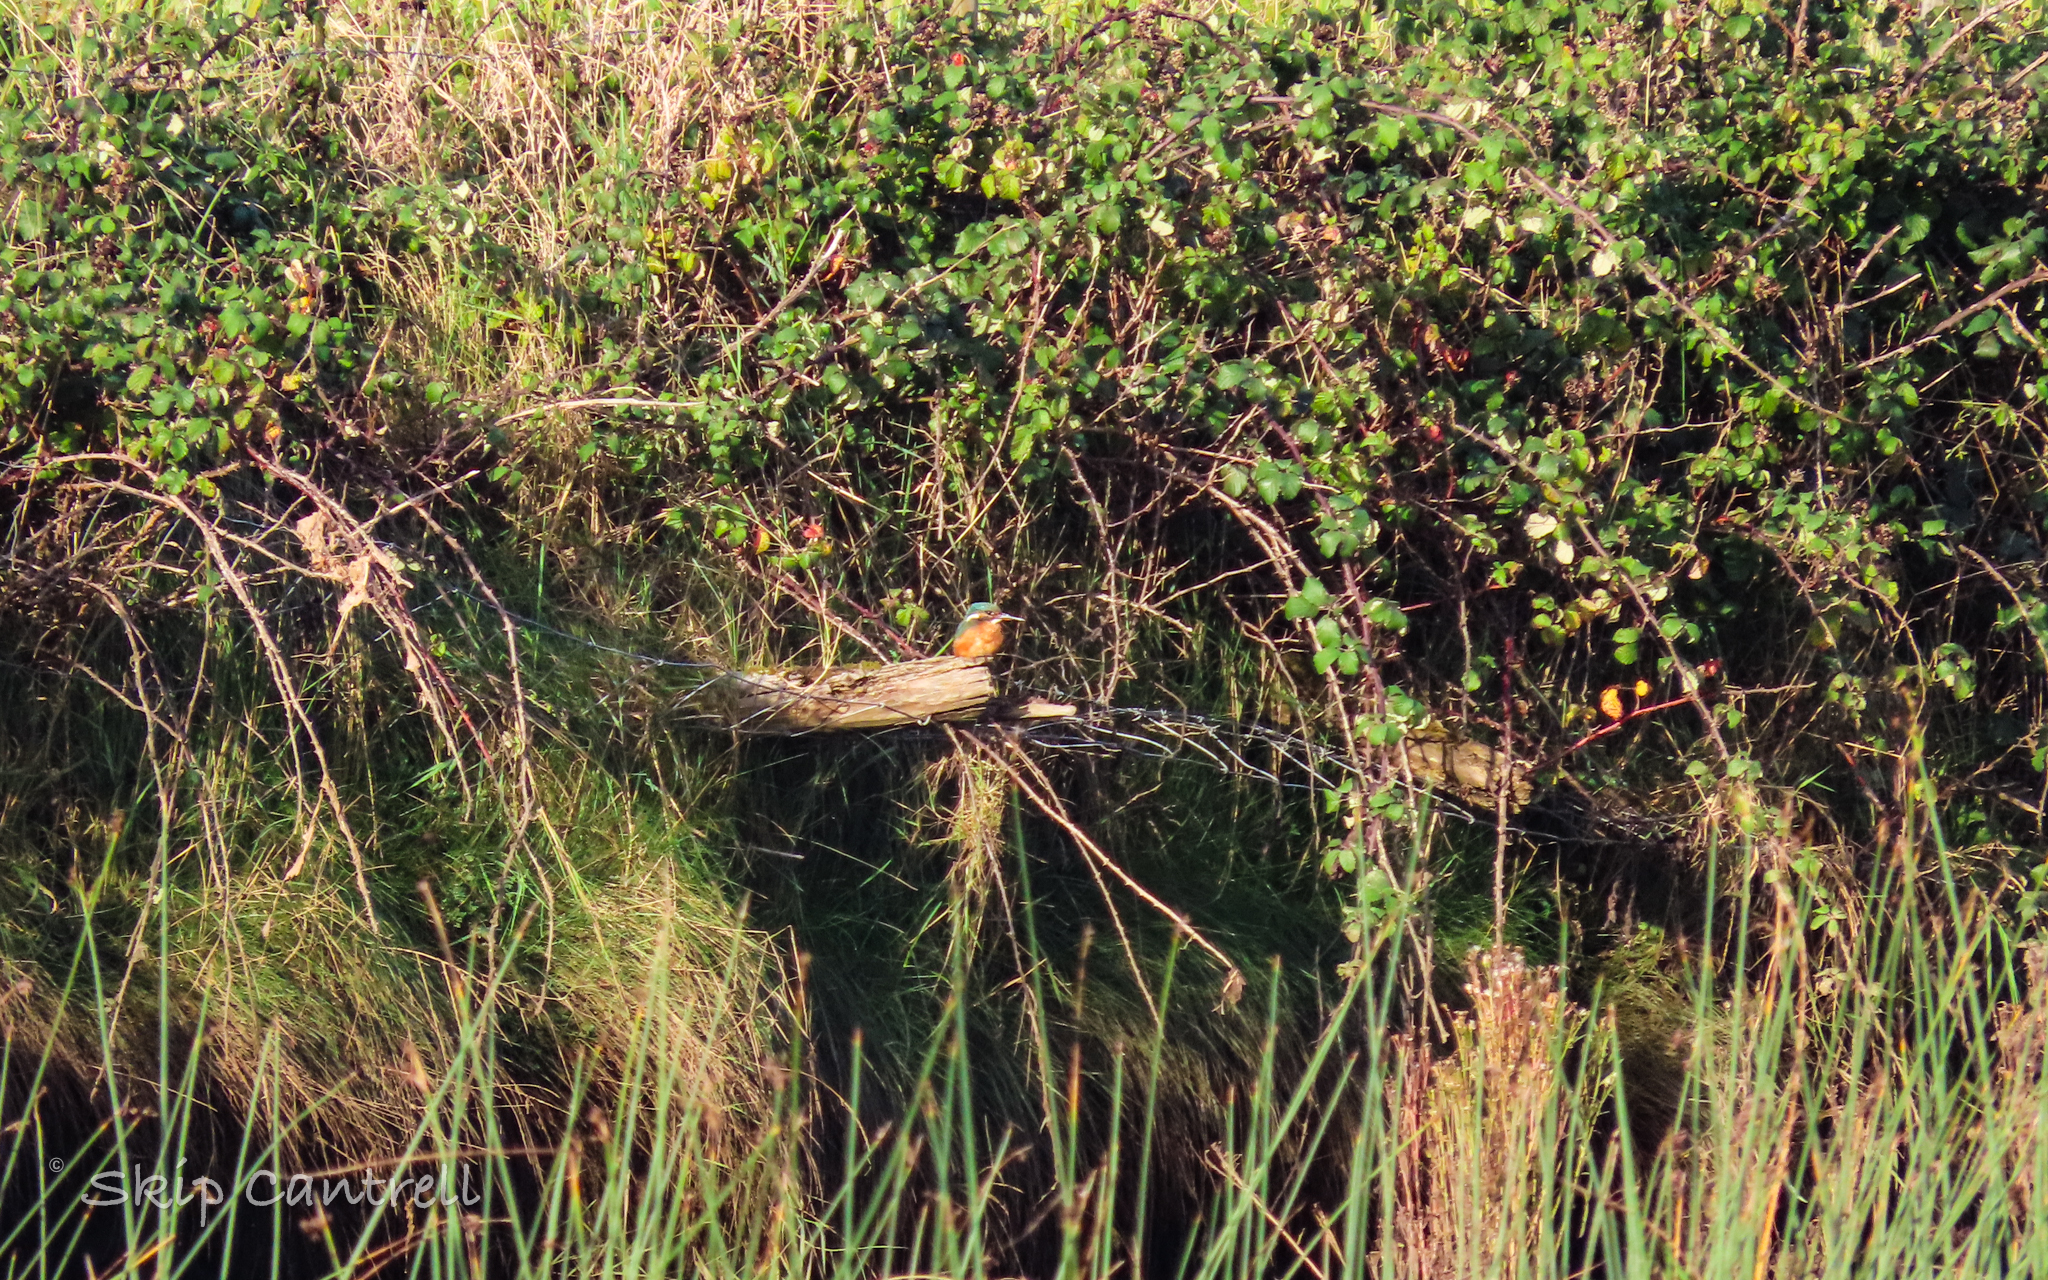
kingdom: Animalia
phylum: Chordata
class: Aves
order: Coraciiformes
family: Alcedinidae
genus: Alcedo
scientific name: Alcedo atthis
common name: Common kingfisher
